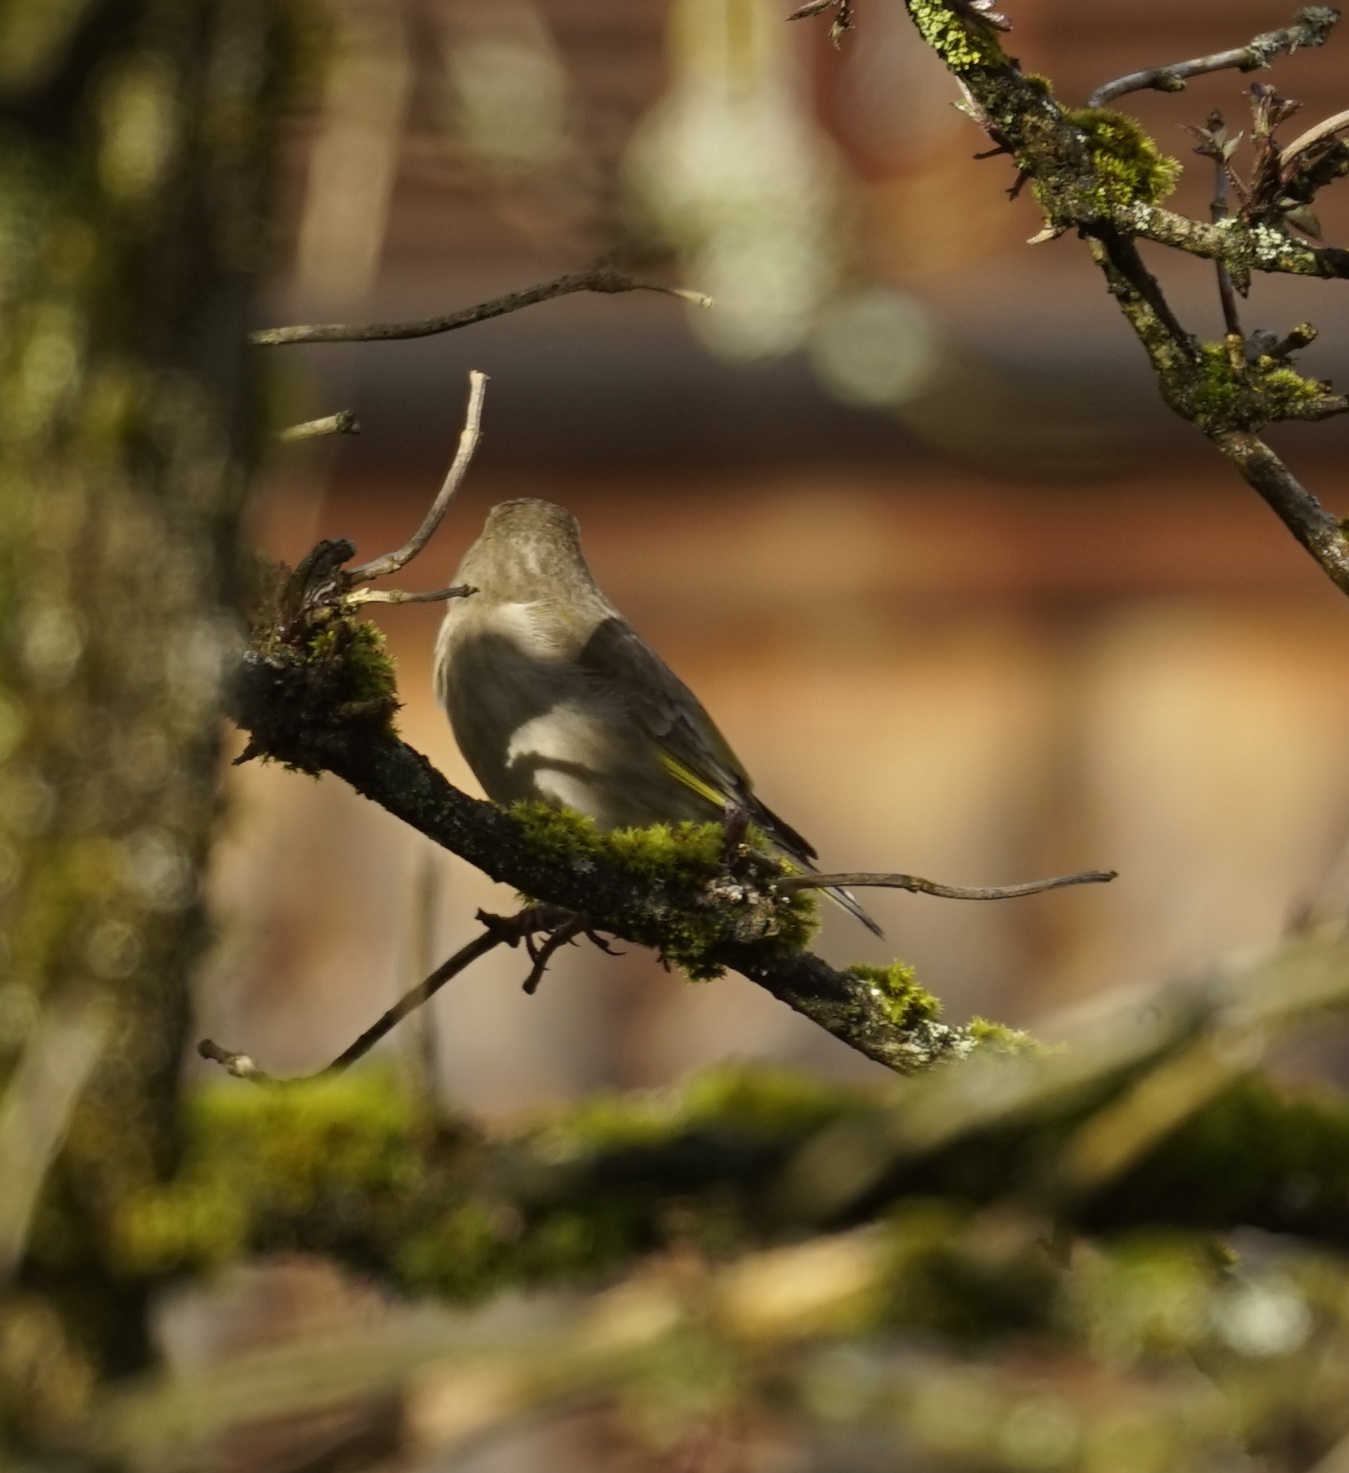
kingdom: Plantae
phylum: Tracheophyta
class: Liliopsida
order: Poales
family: Poaceae
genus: Chloris
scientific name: Chloris chloris
